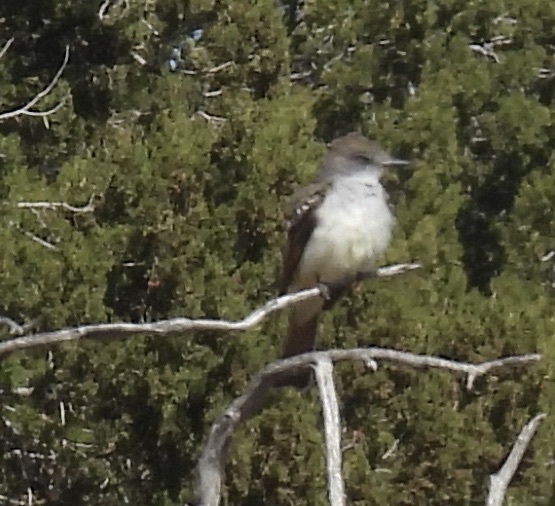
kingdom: Animalia
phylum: Chordata
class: Aves
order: Passeriformes
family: Tyrannidae
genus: Myiarchus
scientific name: Myiarchus cinerascens
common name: Ash-throated flycatcher
